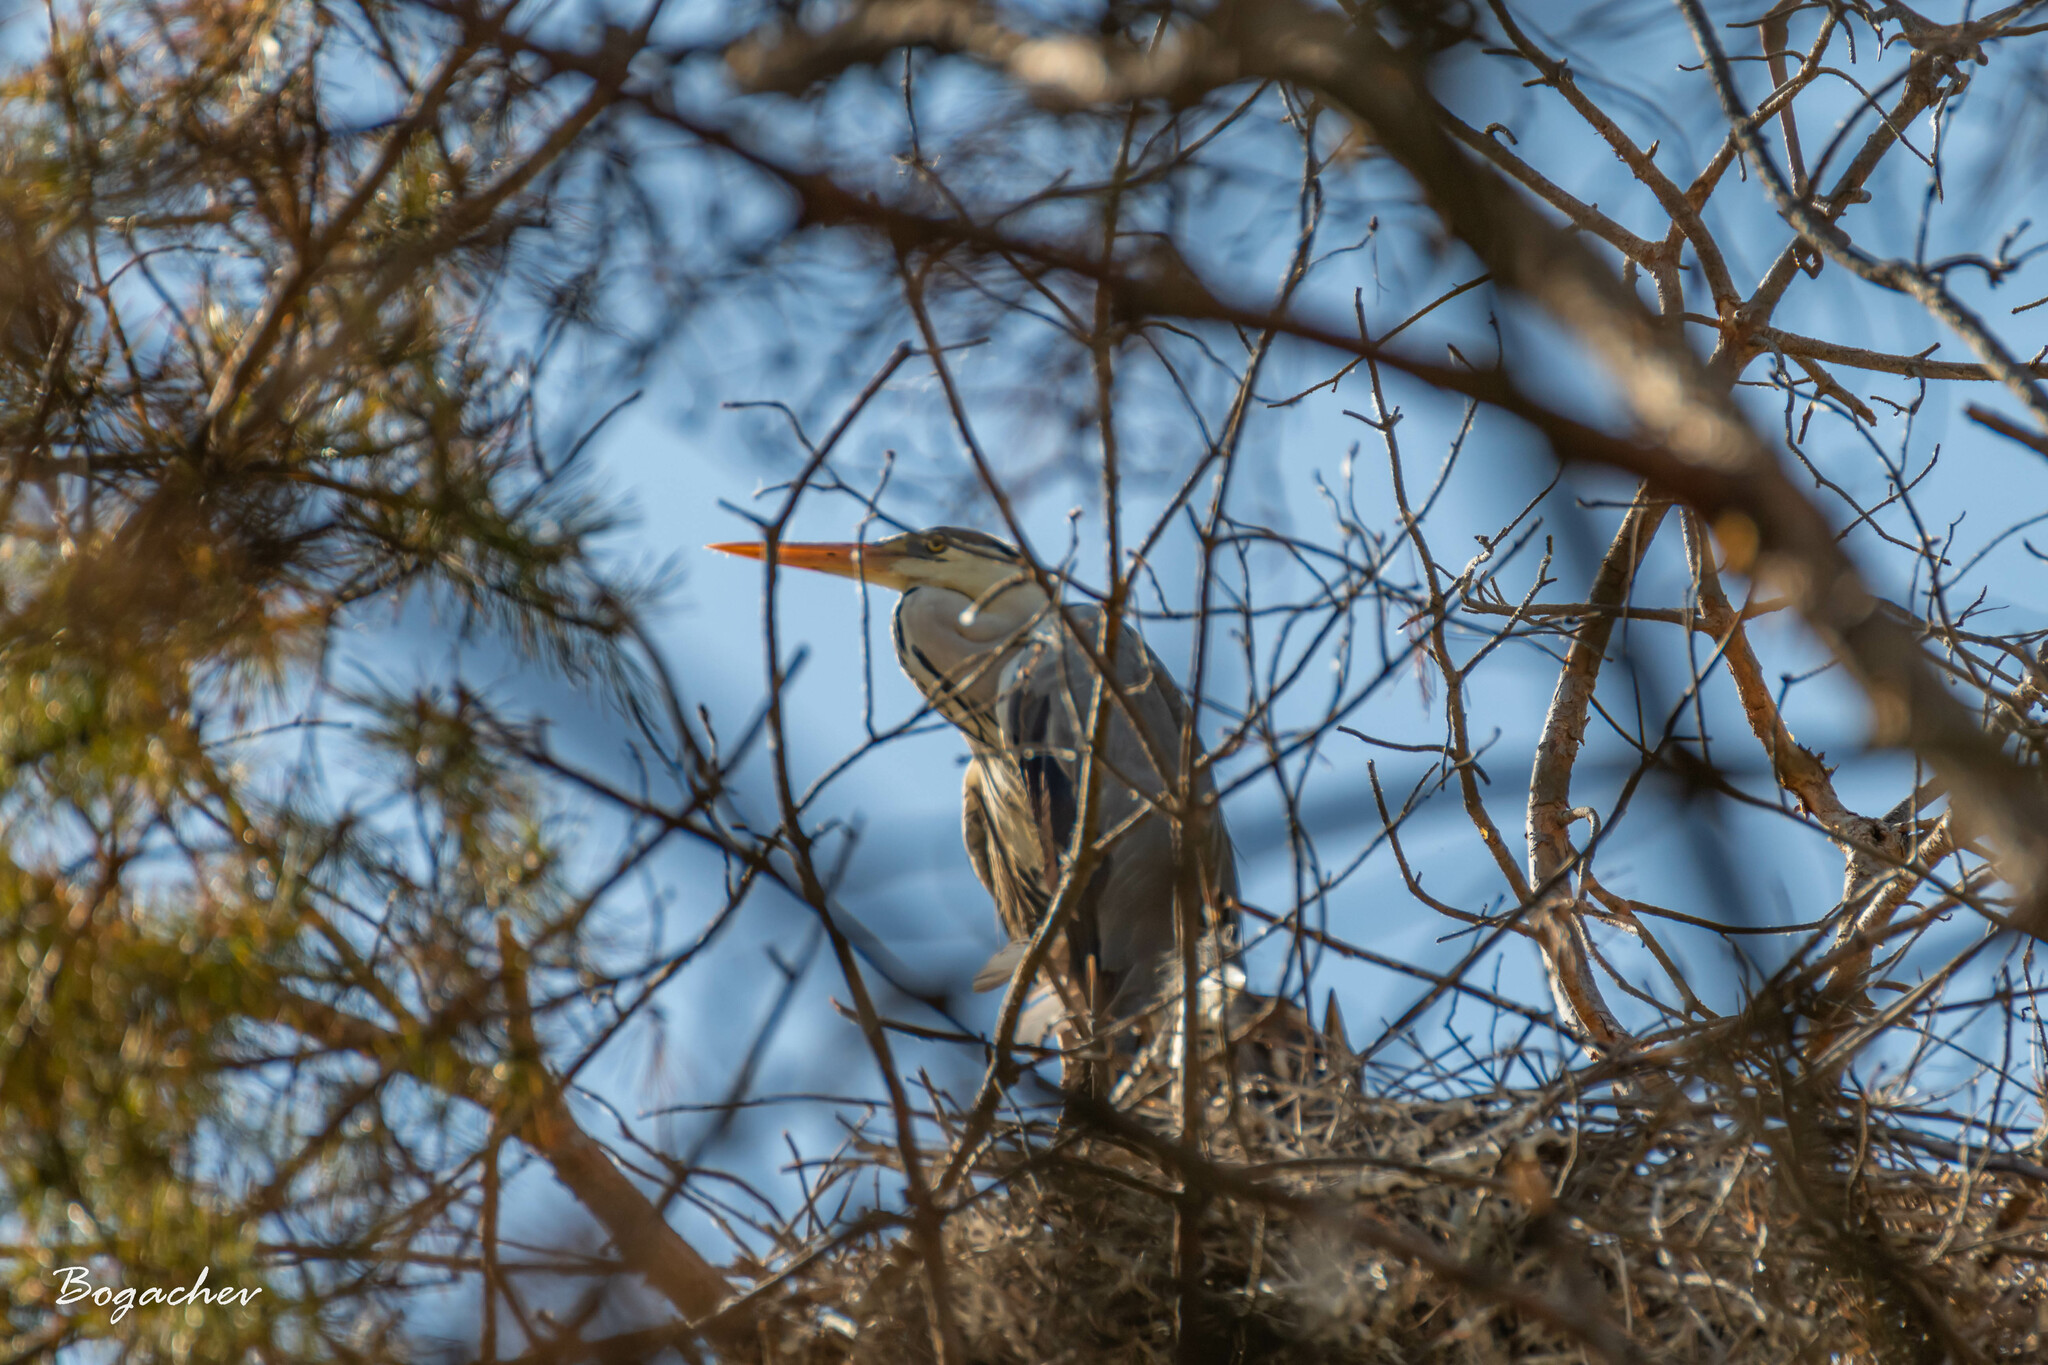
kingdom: Animalia
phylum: Chordata
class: Aves
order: Pelecaniformes
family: Ardeidae
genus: Ardea
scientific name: Ardea cinerea
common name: Grey heron
